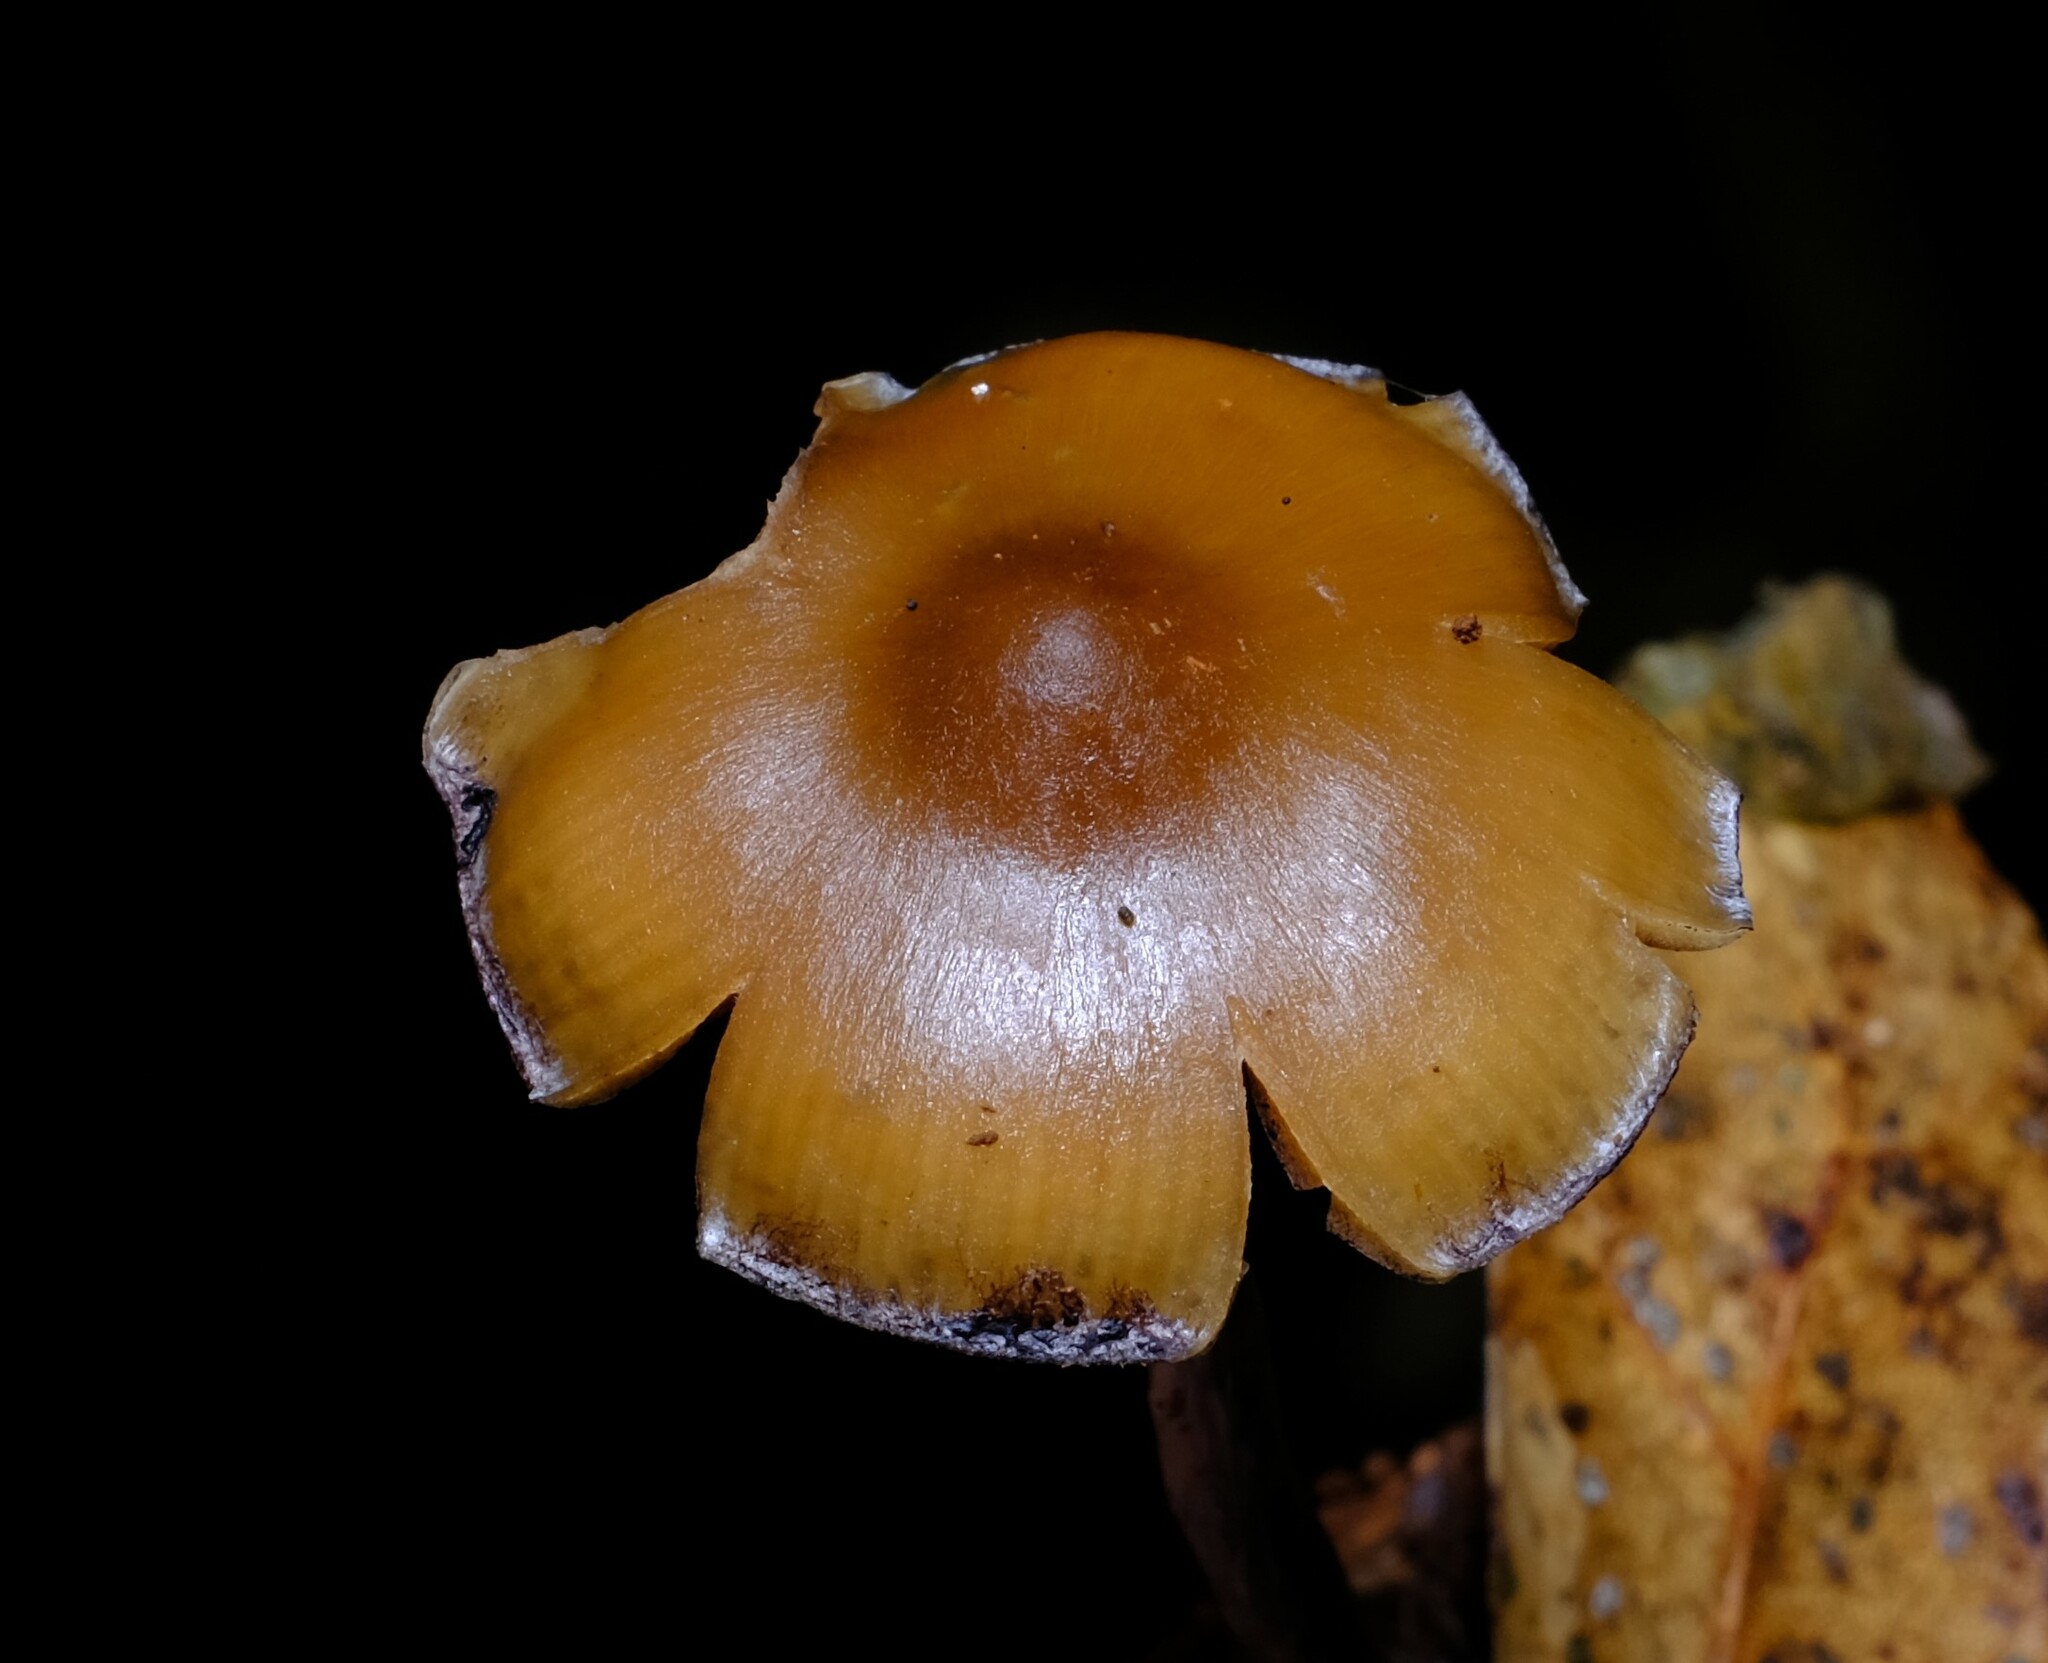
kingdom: Fungi
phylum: Basidiomycota
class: Agaricomycetes
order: Agaricales
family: Hymenogastraceae
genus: Psilocybe
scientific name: Psilocybe subaeruginosa
